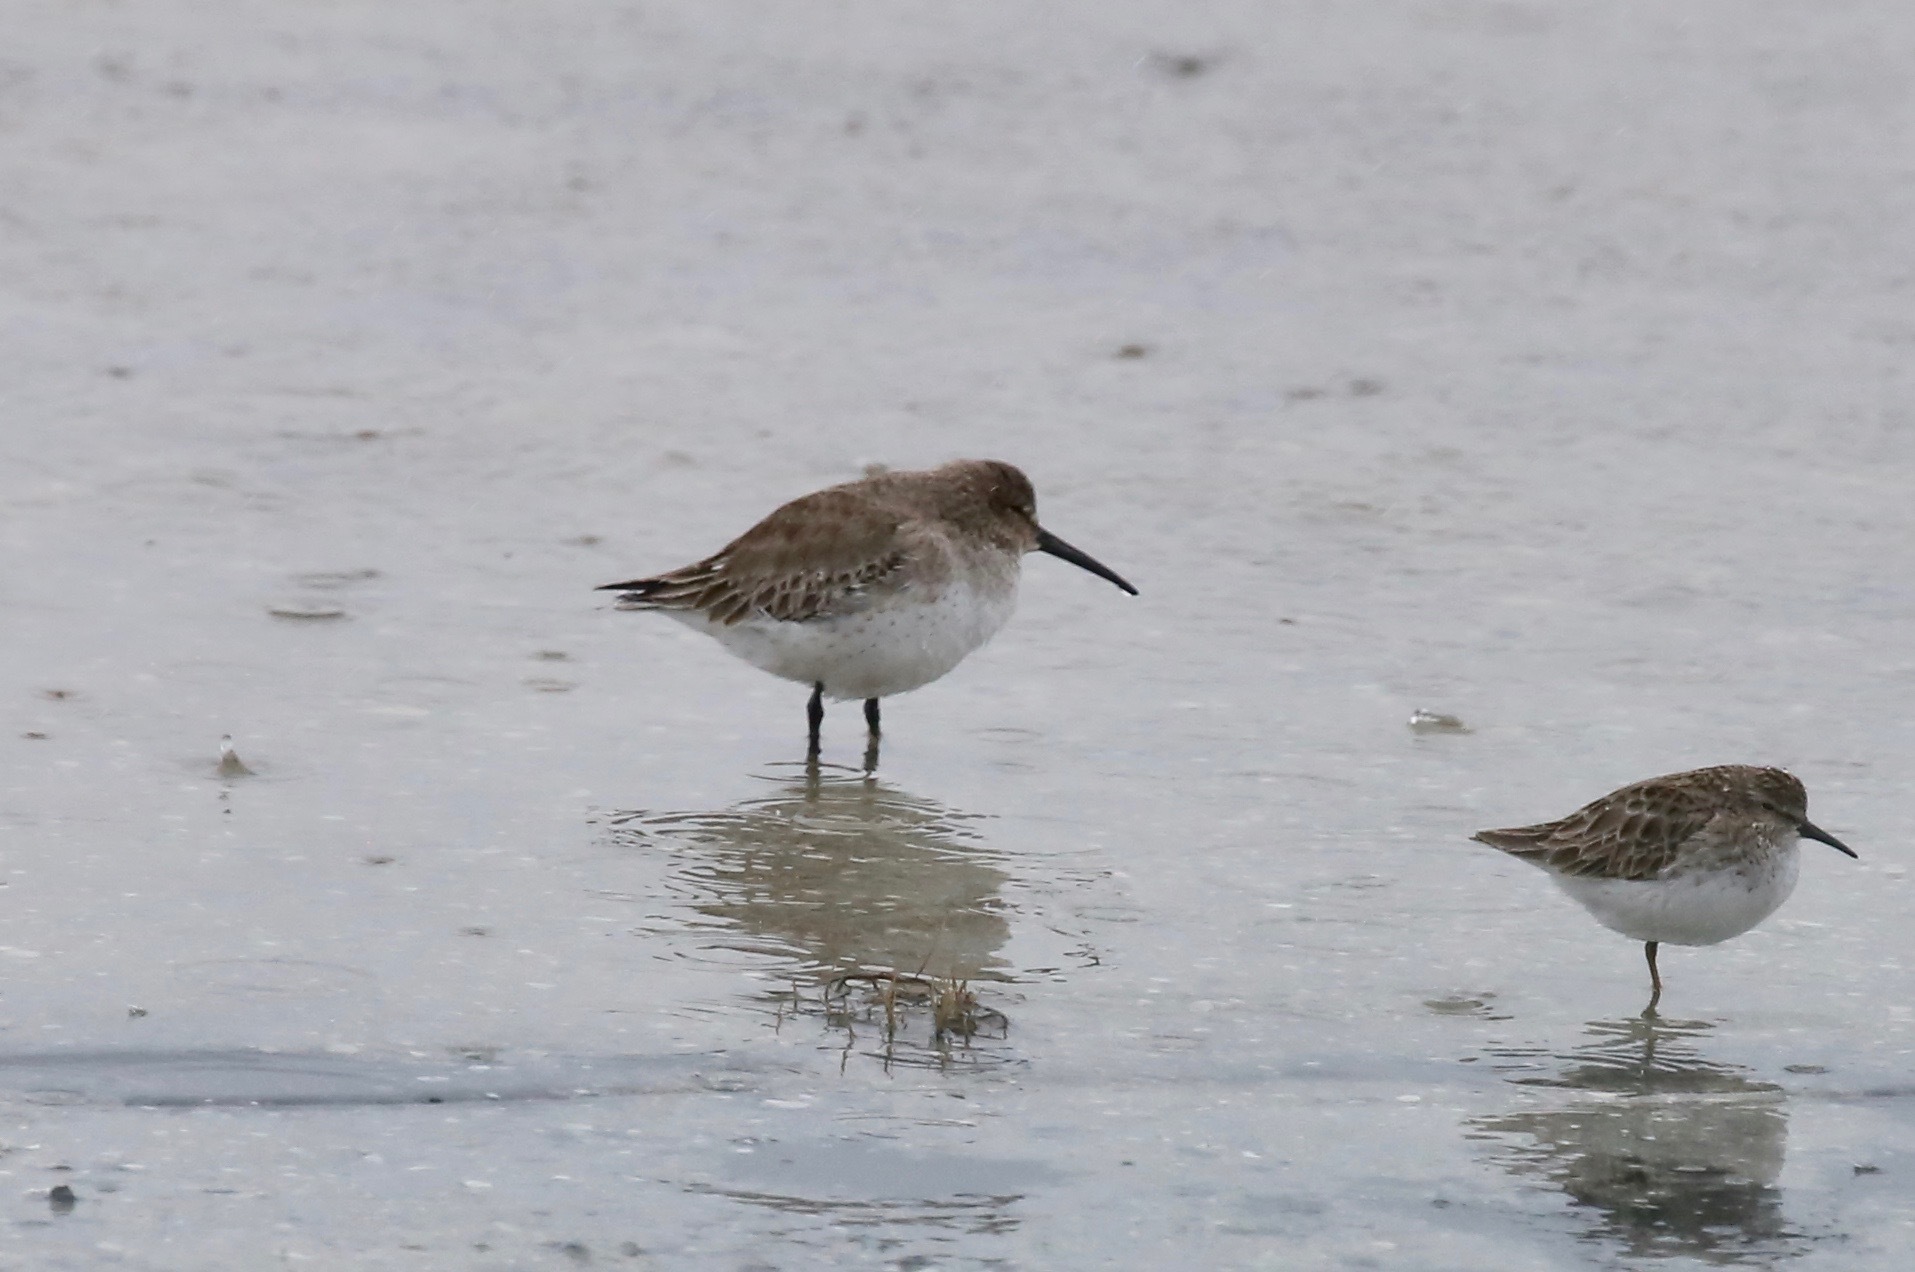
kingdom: Animalia
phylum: Chordata
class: Aves
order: Charadriiformes
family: Scolopacidae
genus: Calidris
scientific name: Calidris alpina
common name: Dunlin
